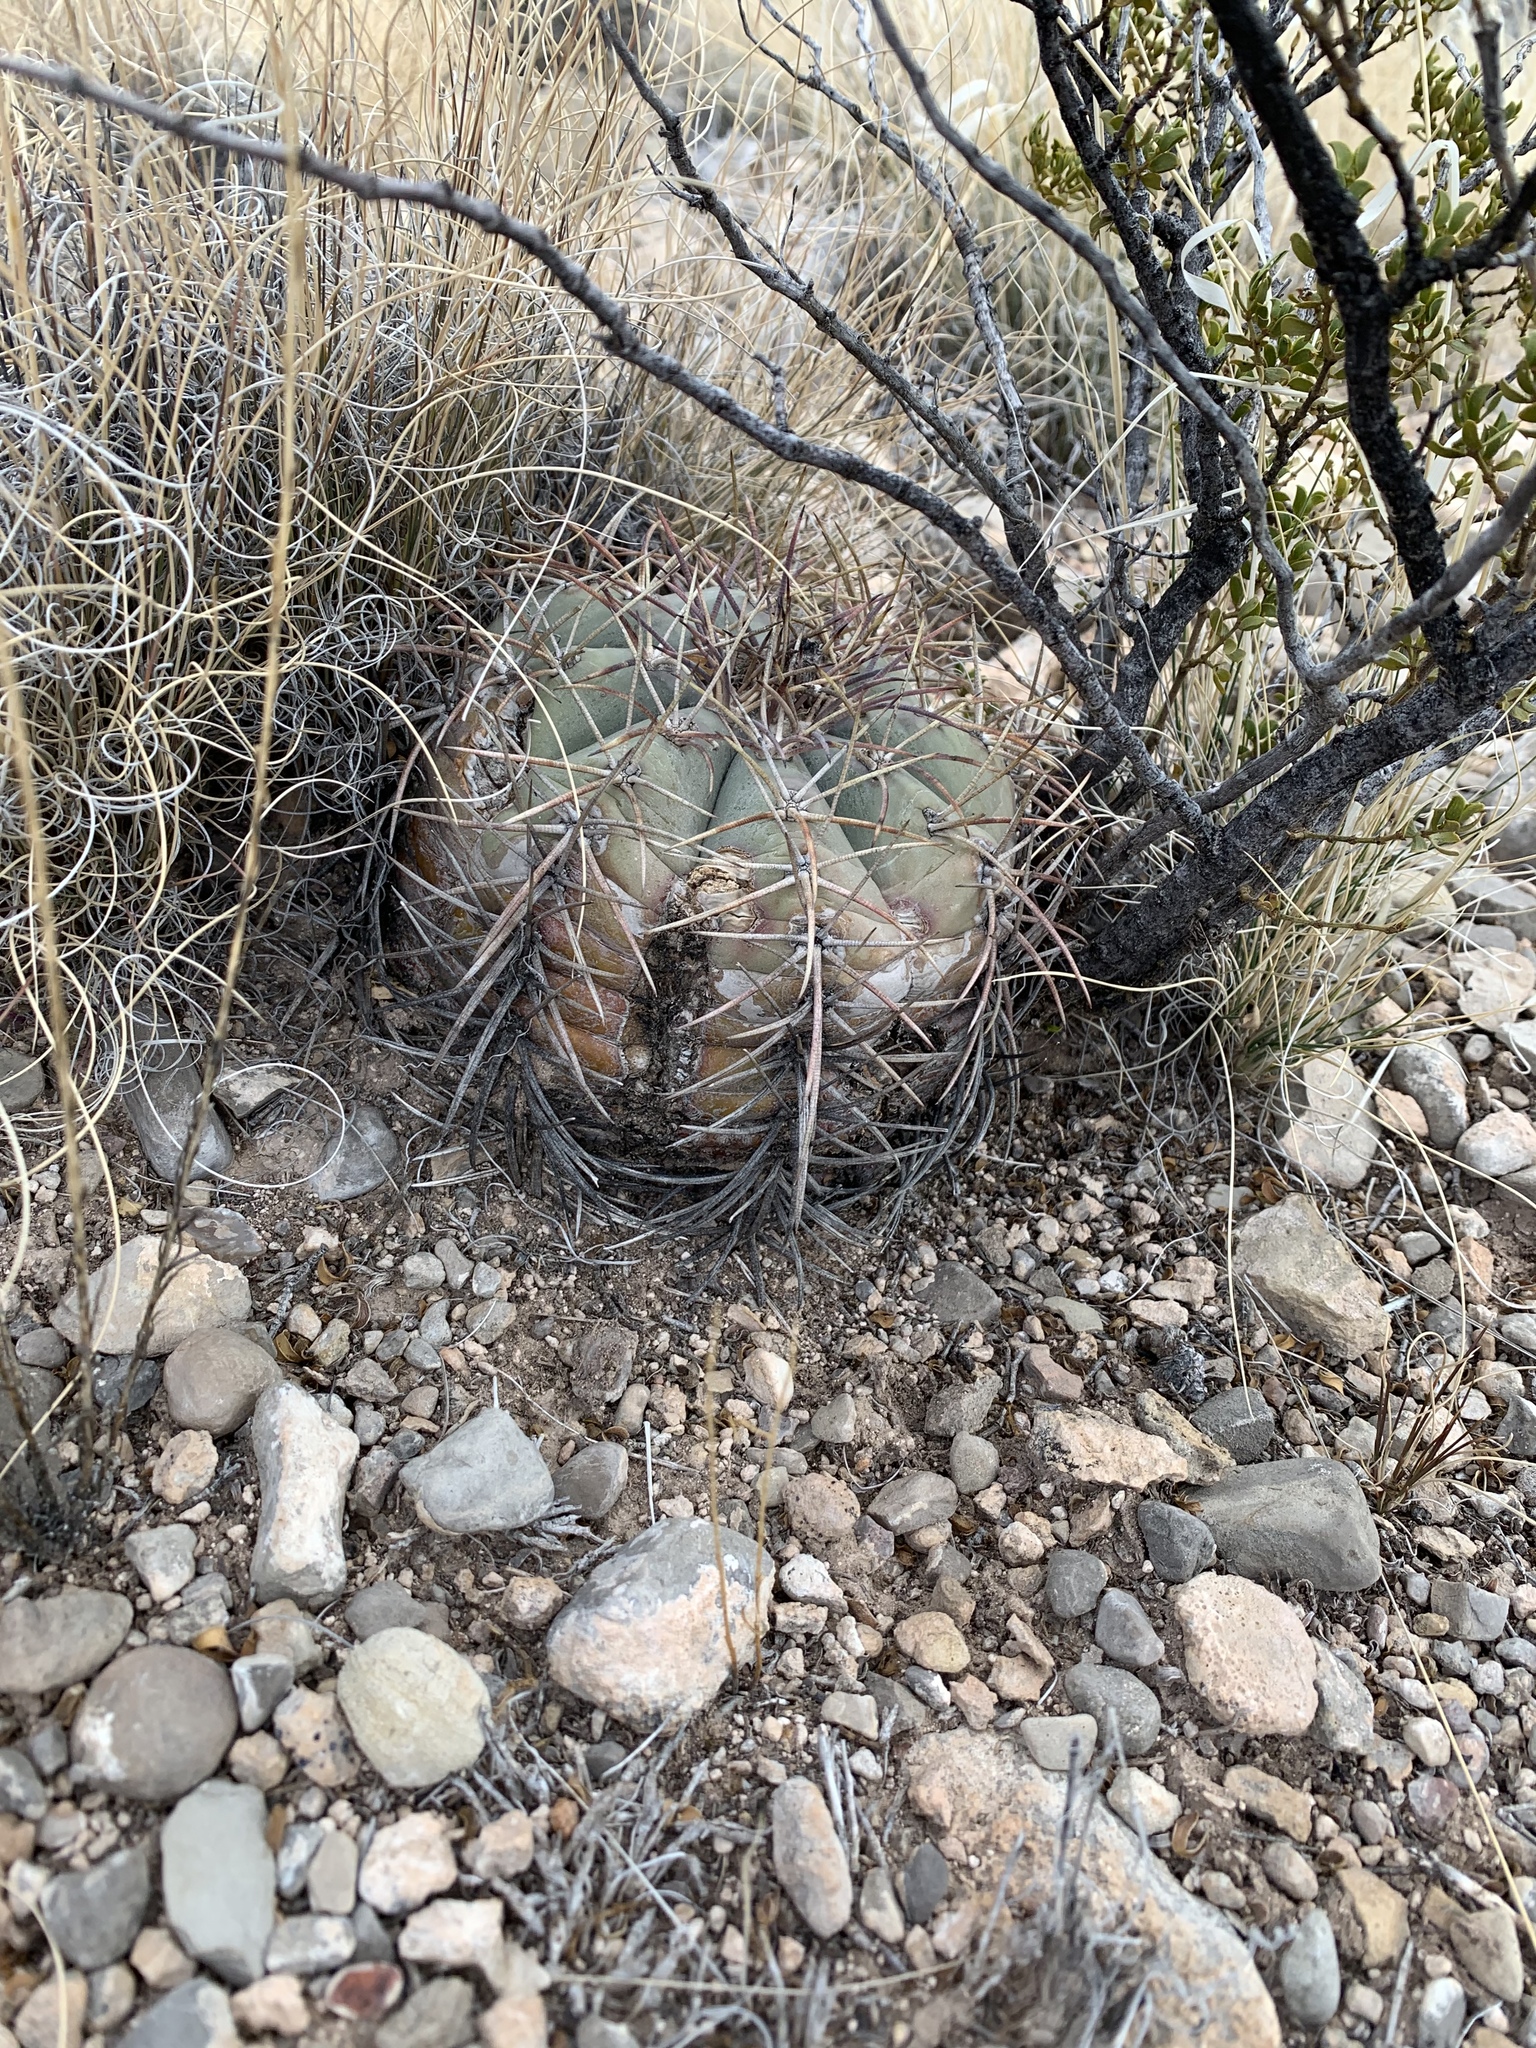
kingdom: Plantae
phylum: Tracheophyta
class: Magnoliopsida
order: Caryophyllales
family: Cactaceae
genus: Echinocactus
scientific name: Echinocactus horizonthalonius
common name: Devilshead
